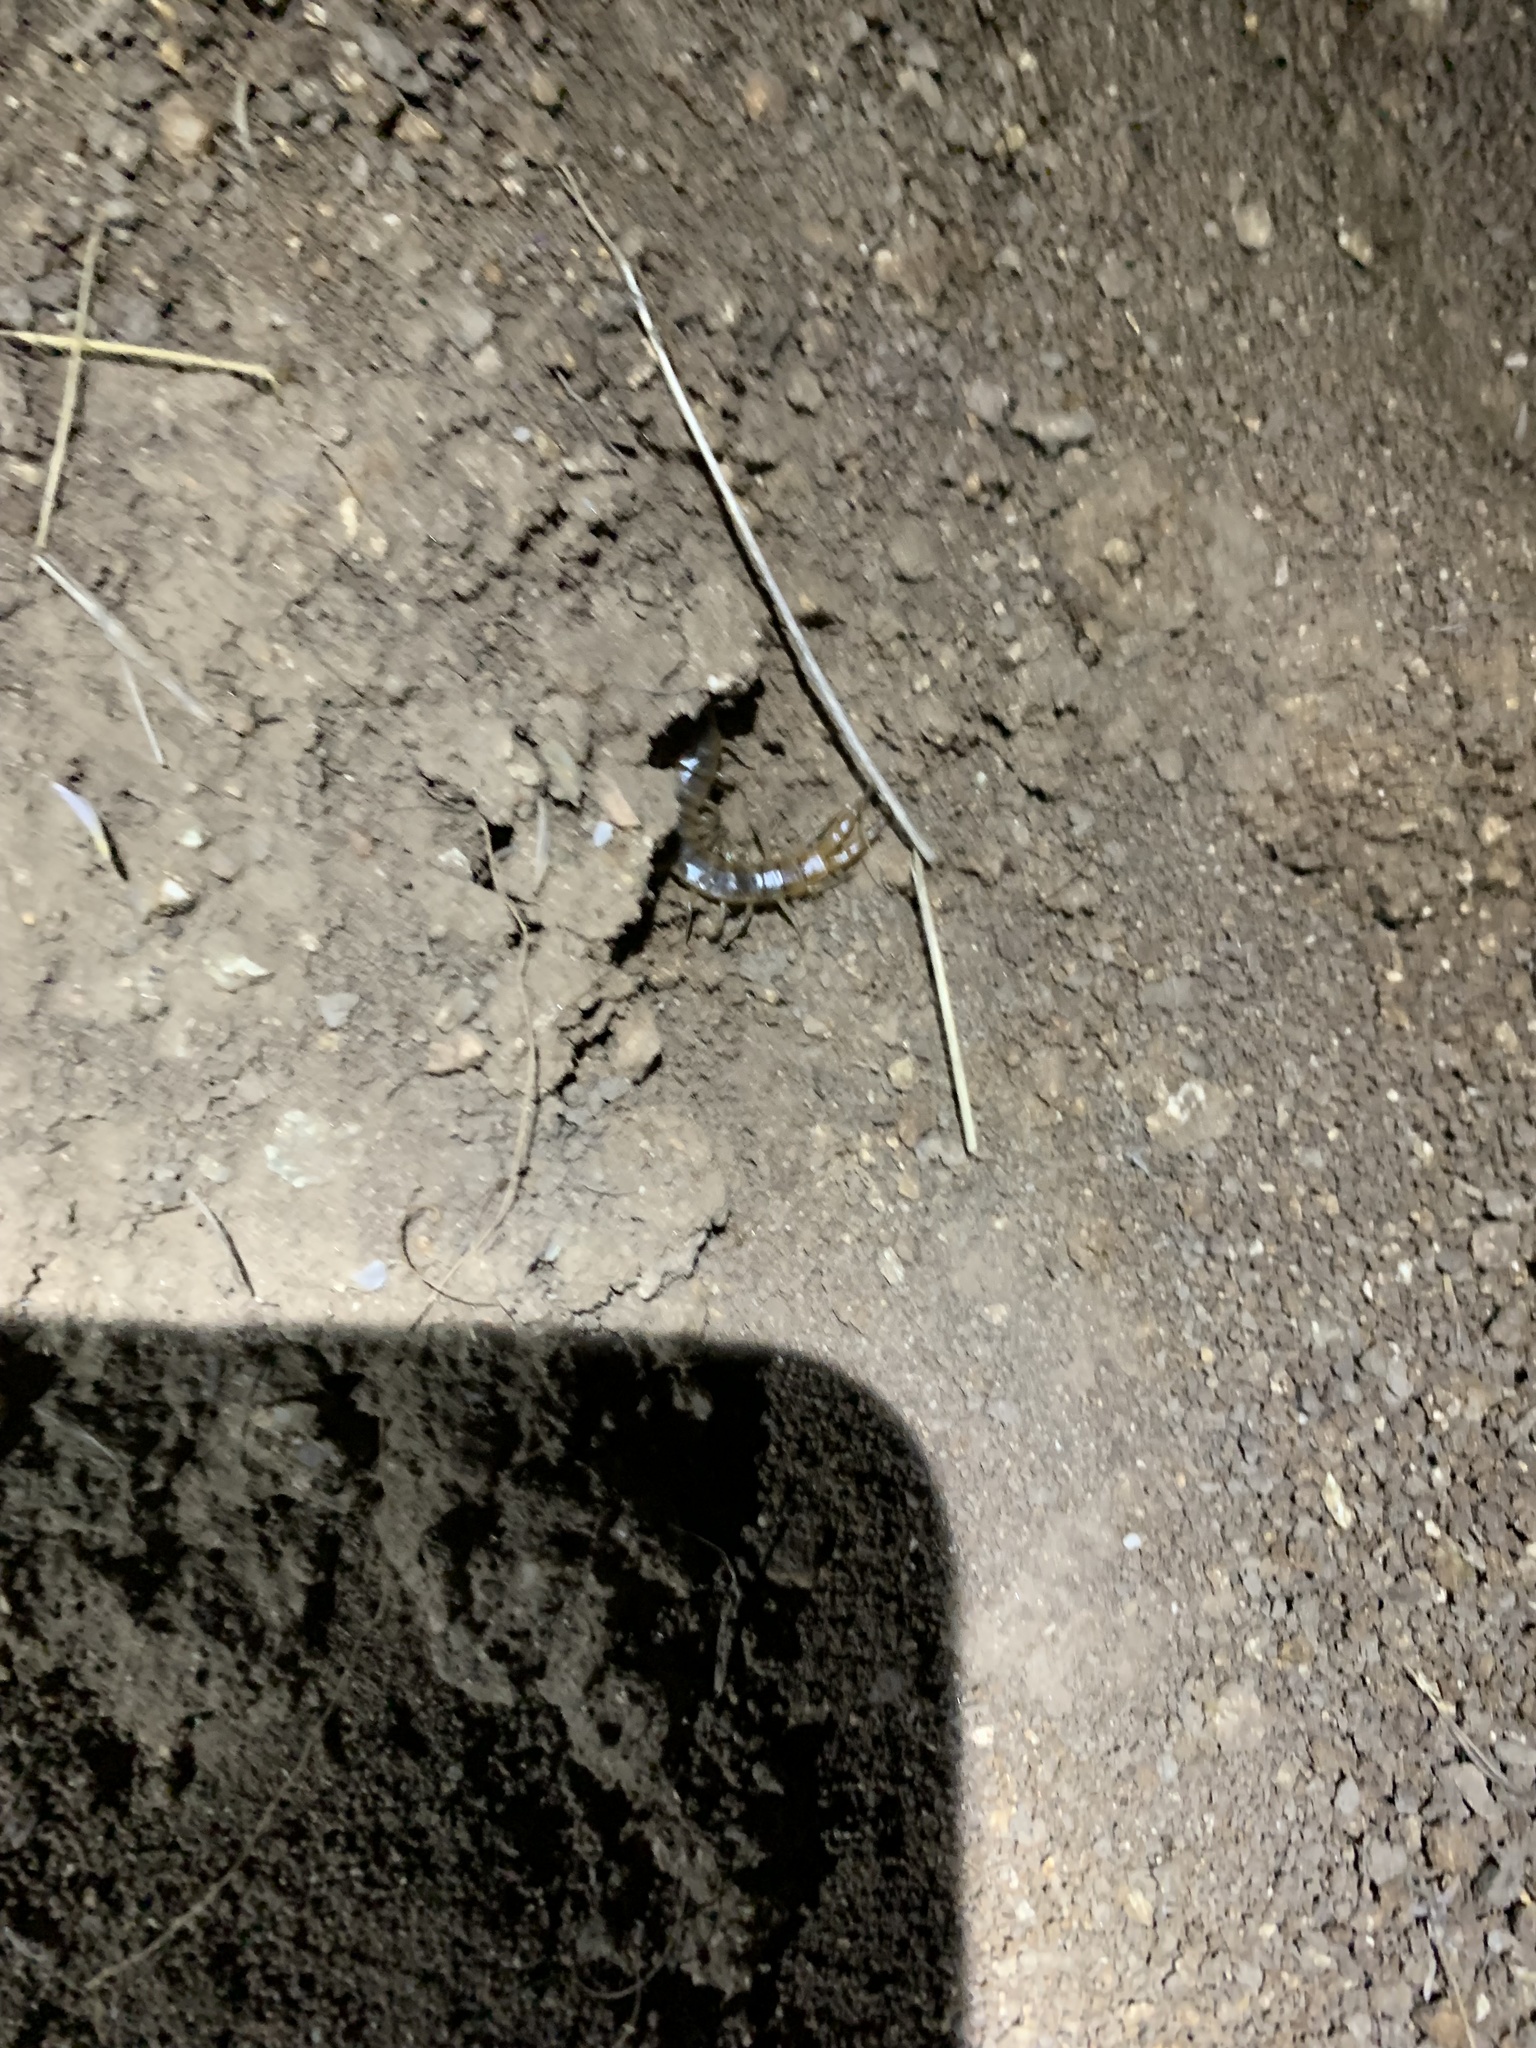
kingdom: Animalia
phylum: Arthropoda
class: Chilopoda
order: Scolopendromorpha
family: Scolopendridae
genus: Scolopendra
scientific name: Scolopendra viridis
